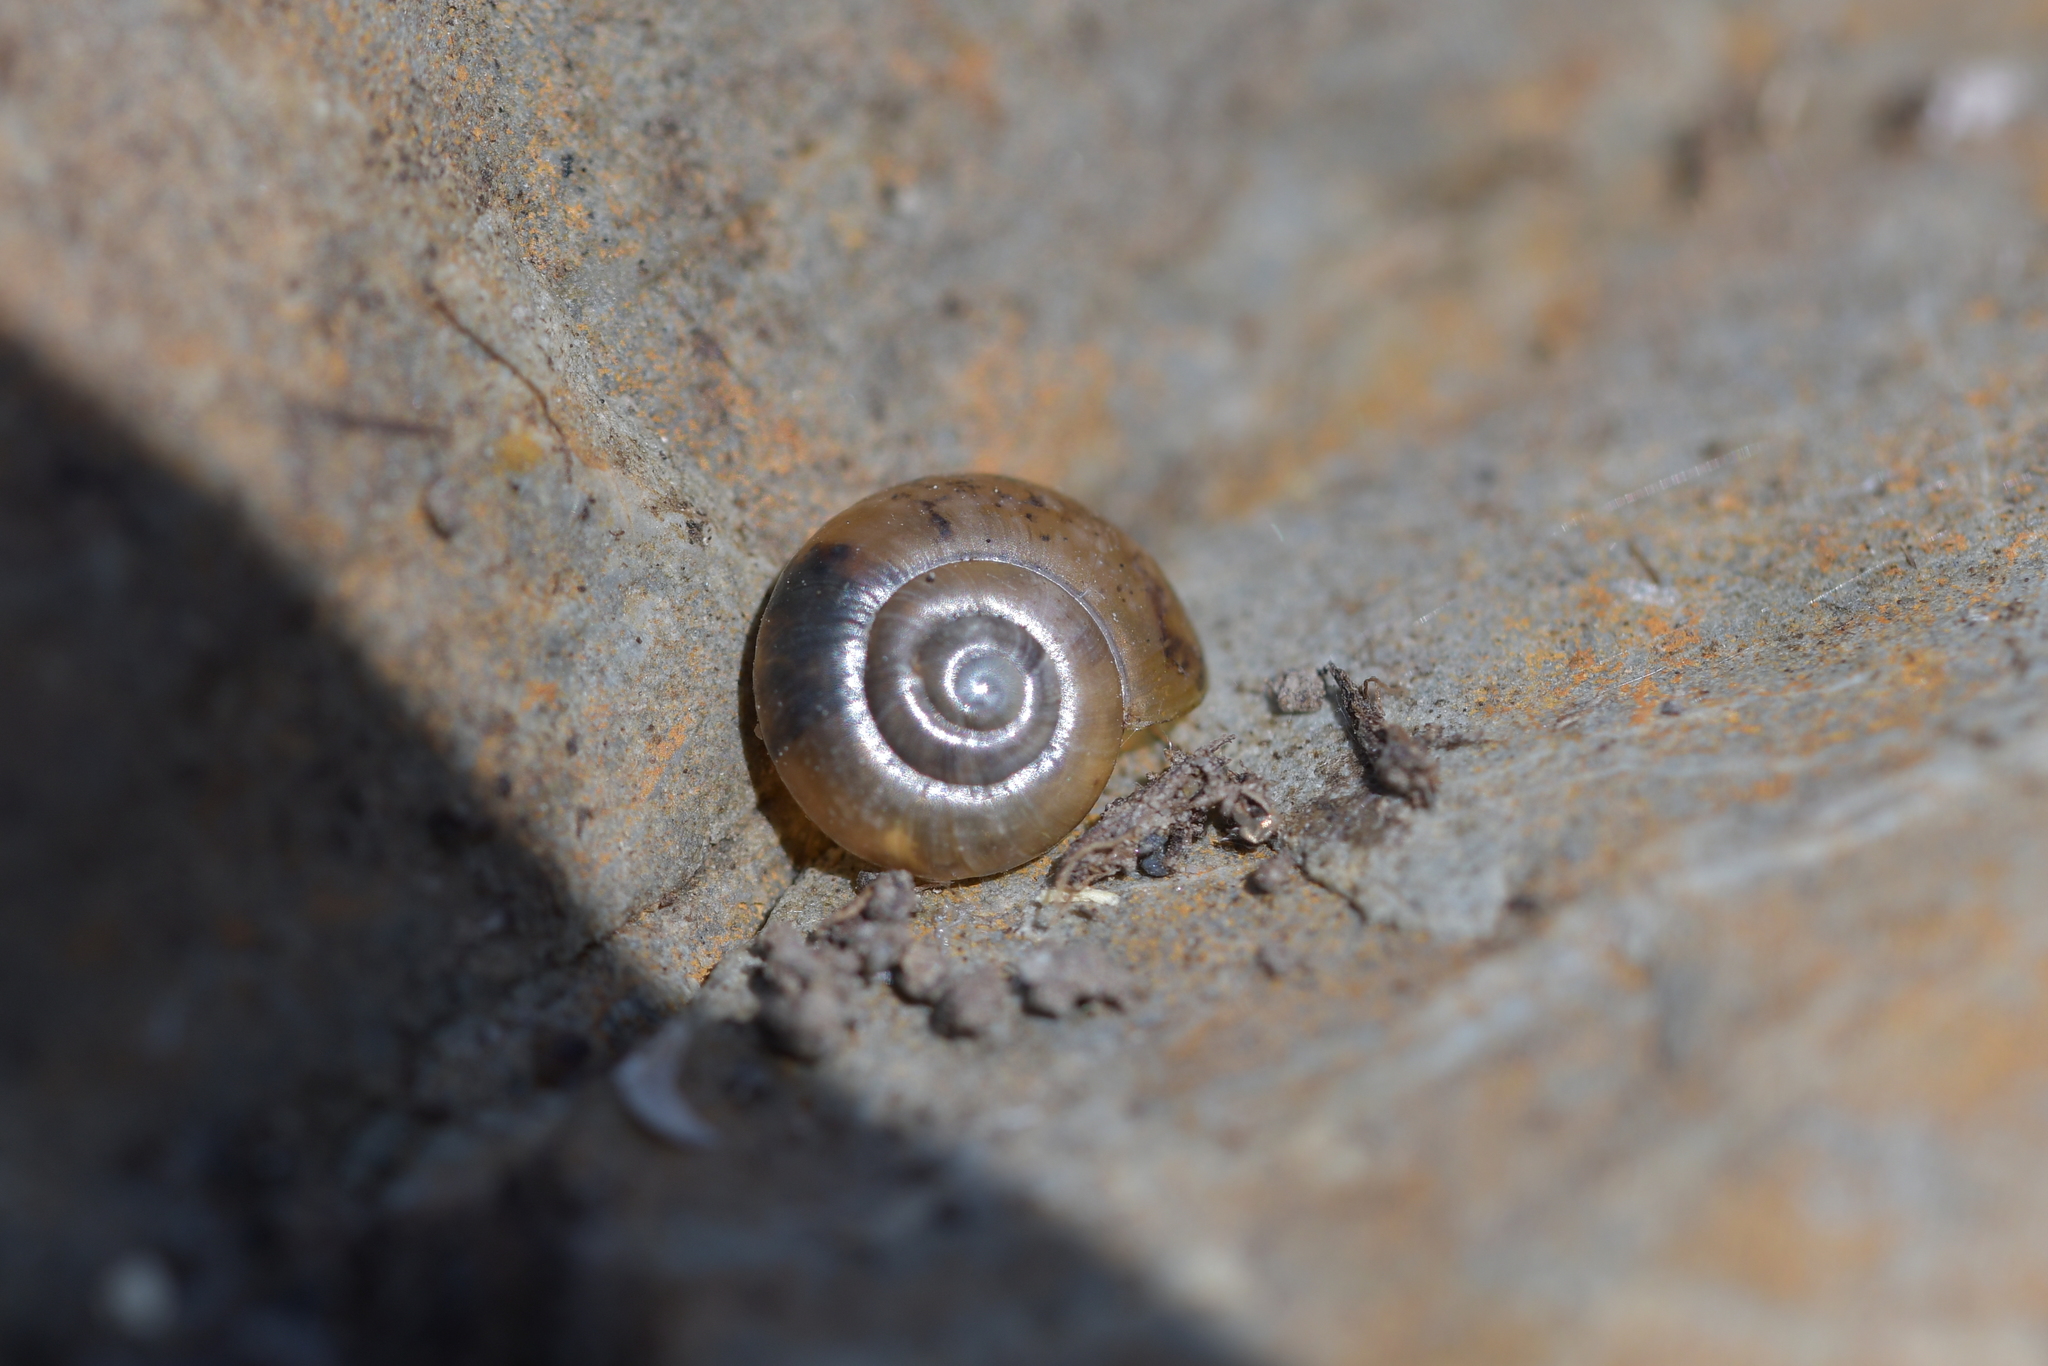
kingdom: Animalia
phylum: Mollusca
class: Gastropoda
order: Stylommatophora
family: Oxychilidae
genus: Oxychilus
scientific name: Oxychilus draparnaudi
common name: Draparnaud's glass snail
